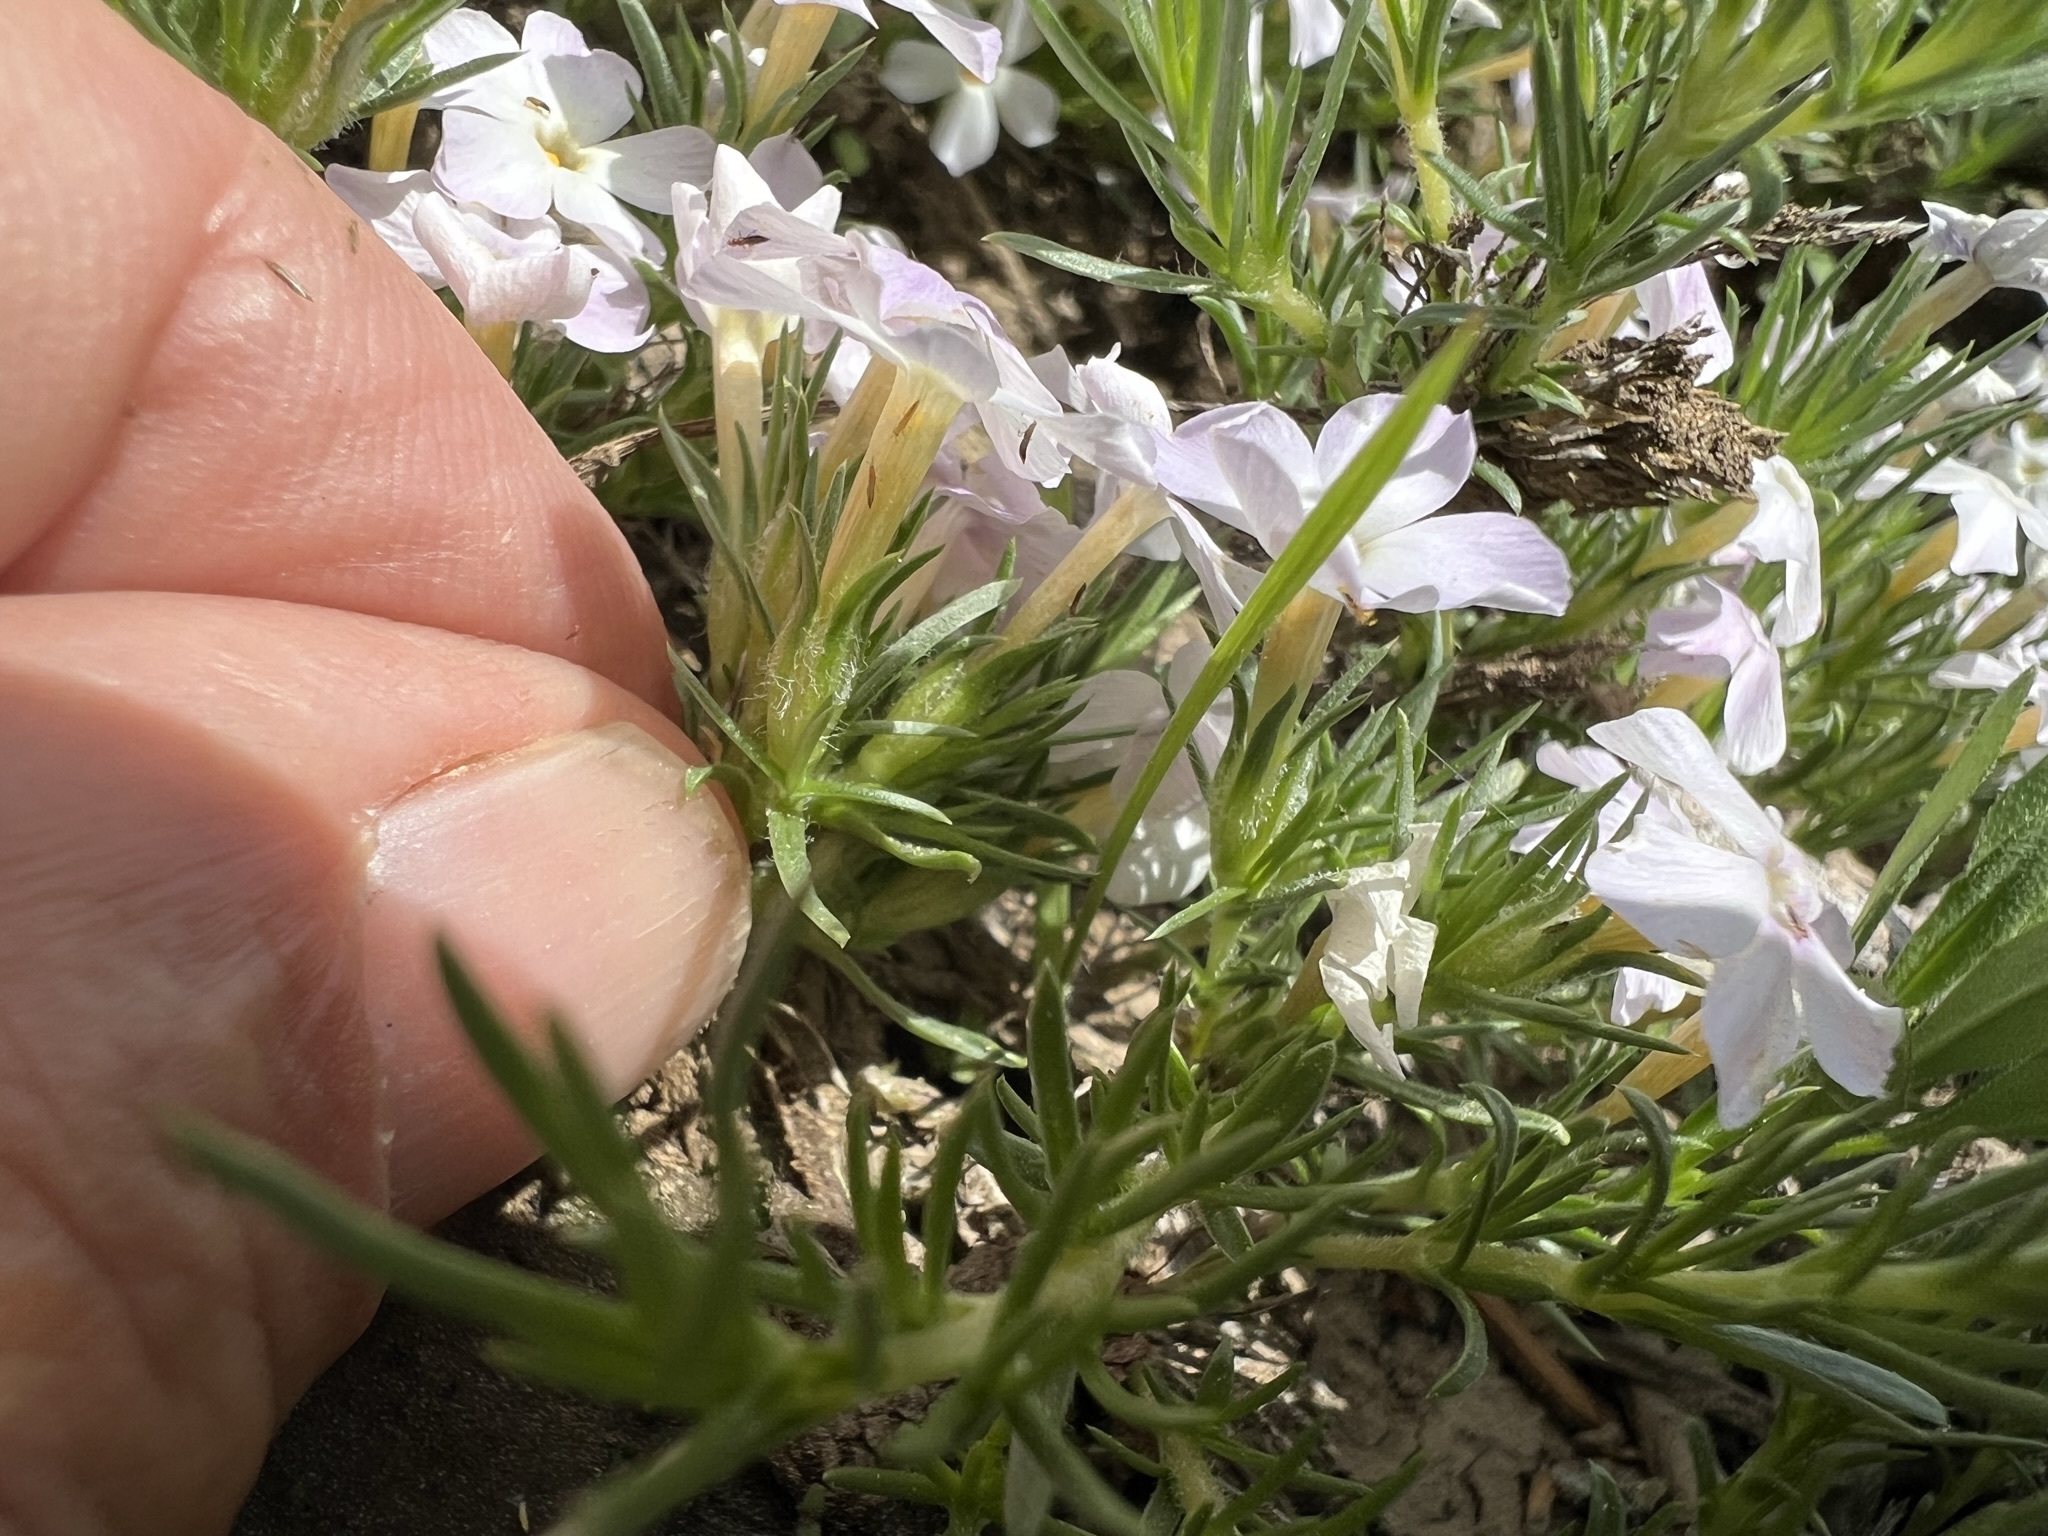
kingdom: Plantae
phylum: Tracheophyta
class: Magnoliopsida
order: Ericales
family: Polemoniaceae
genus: Phlox
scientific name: Phlox diffusa
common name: Mat phlox
